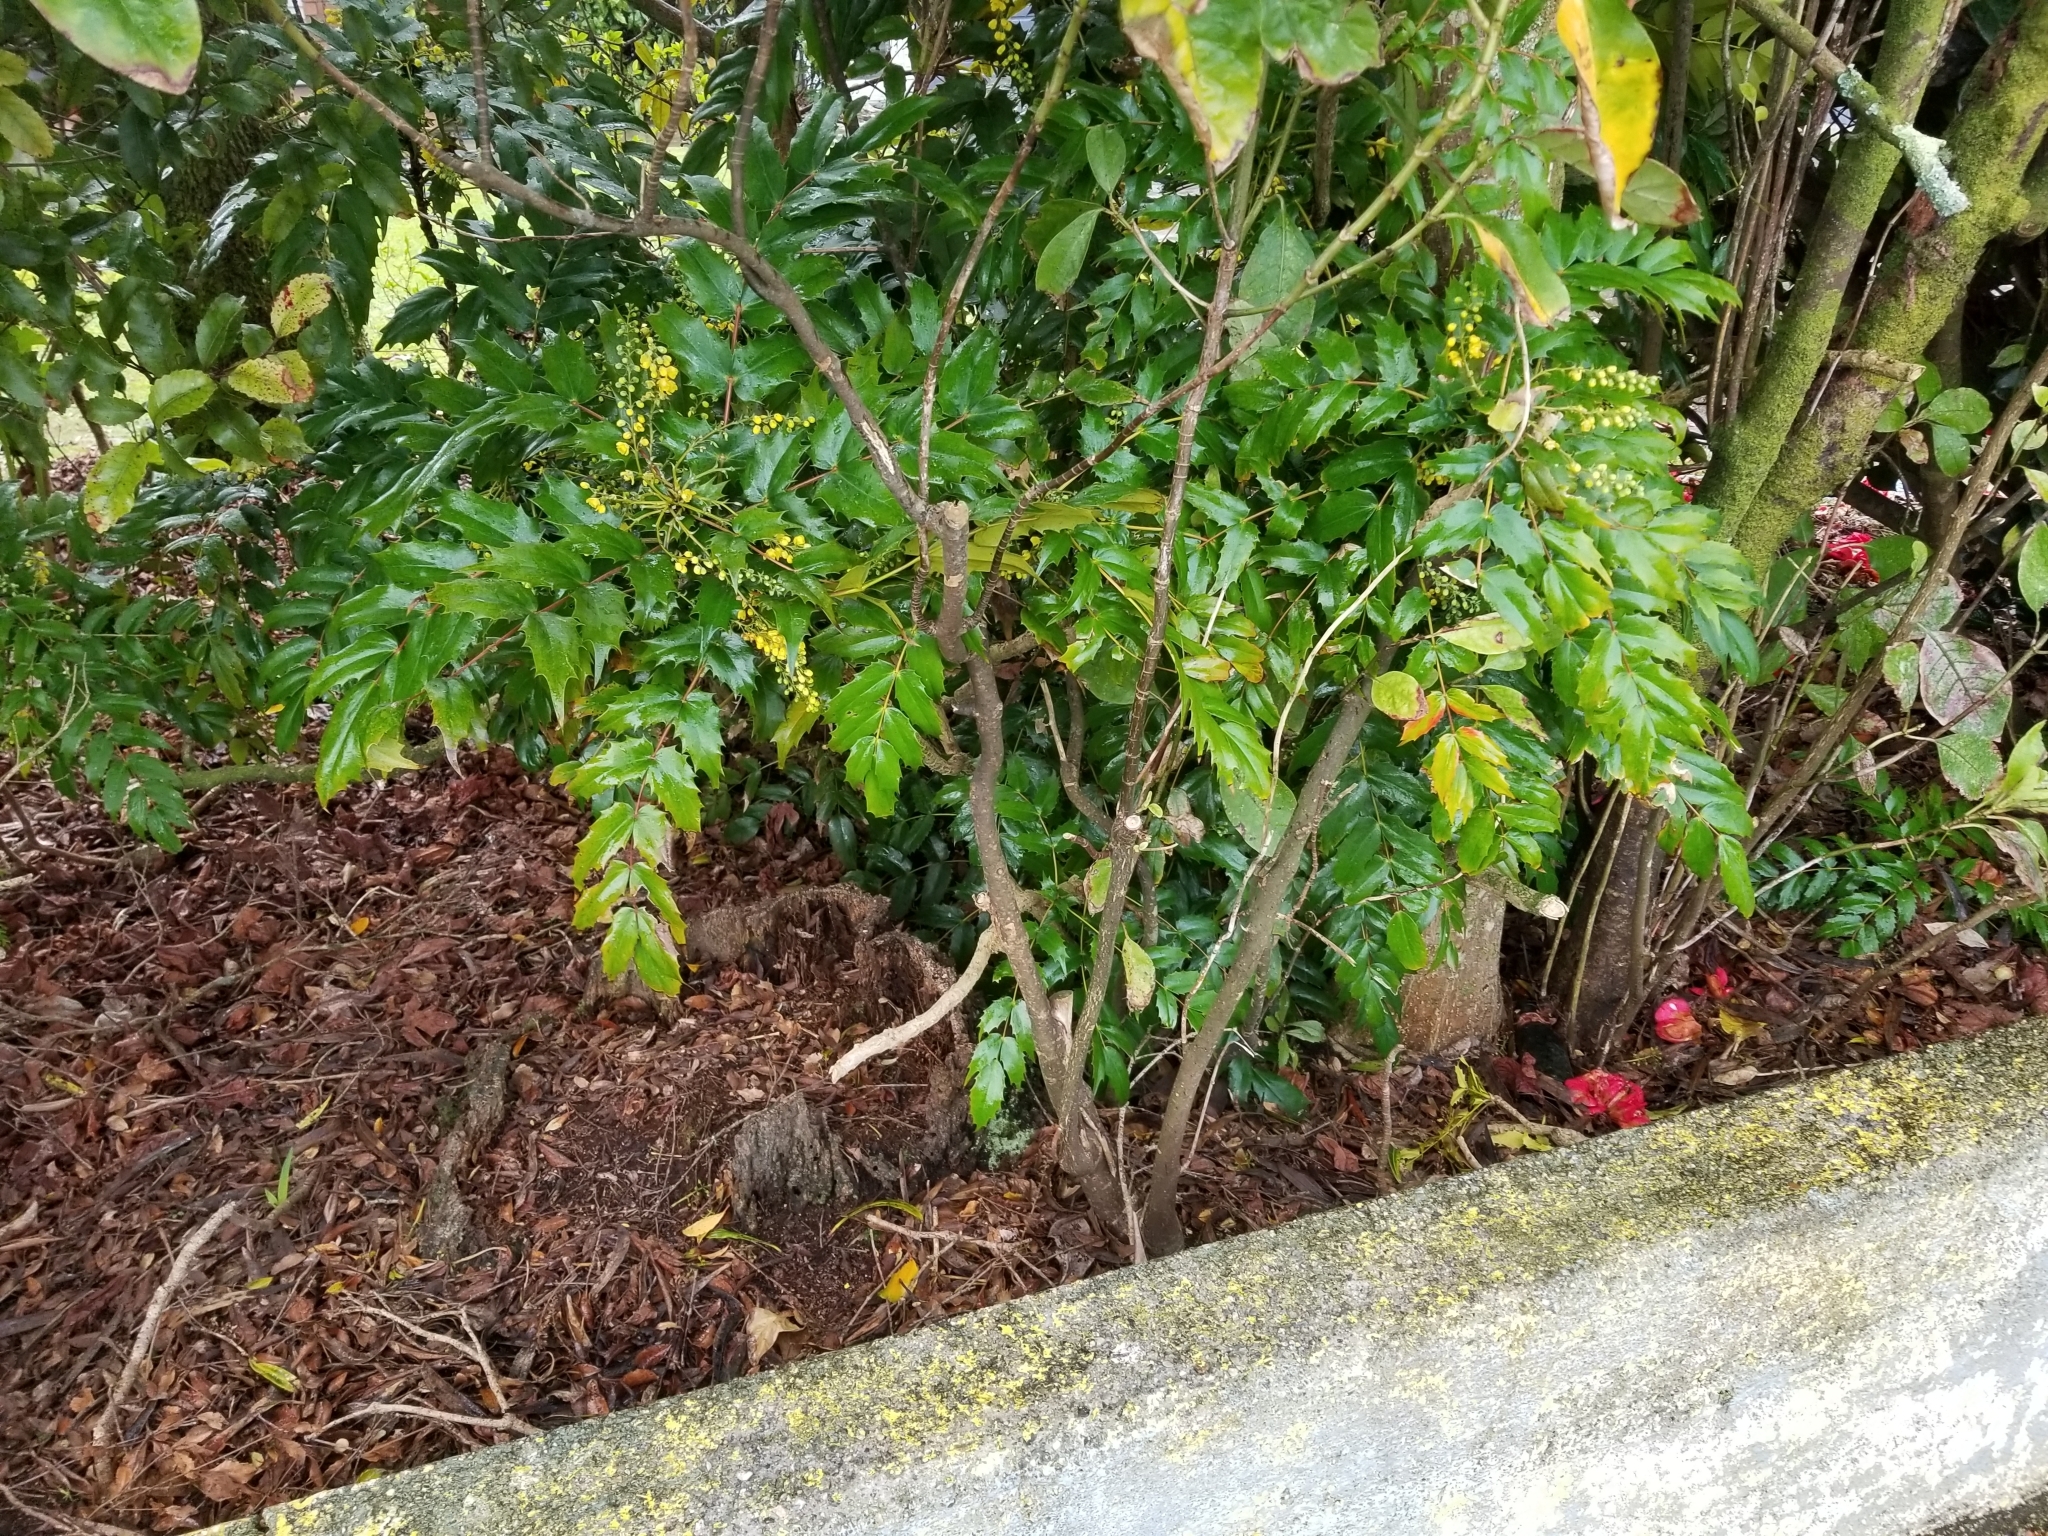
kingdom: Plantae
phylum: Tracheophyta
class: Magnoliopsida
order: Ranunculales
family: Berberidaceae
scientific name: Berberidaceae
